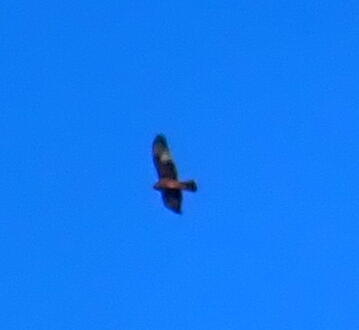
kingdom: Animalia
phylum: Chordata
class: Aves
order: Accipitriformes
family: Accipitridae
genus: Circus
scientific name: Circus approximans
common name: Swamp harrier
